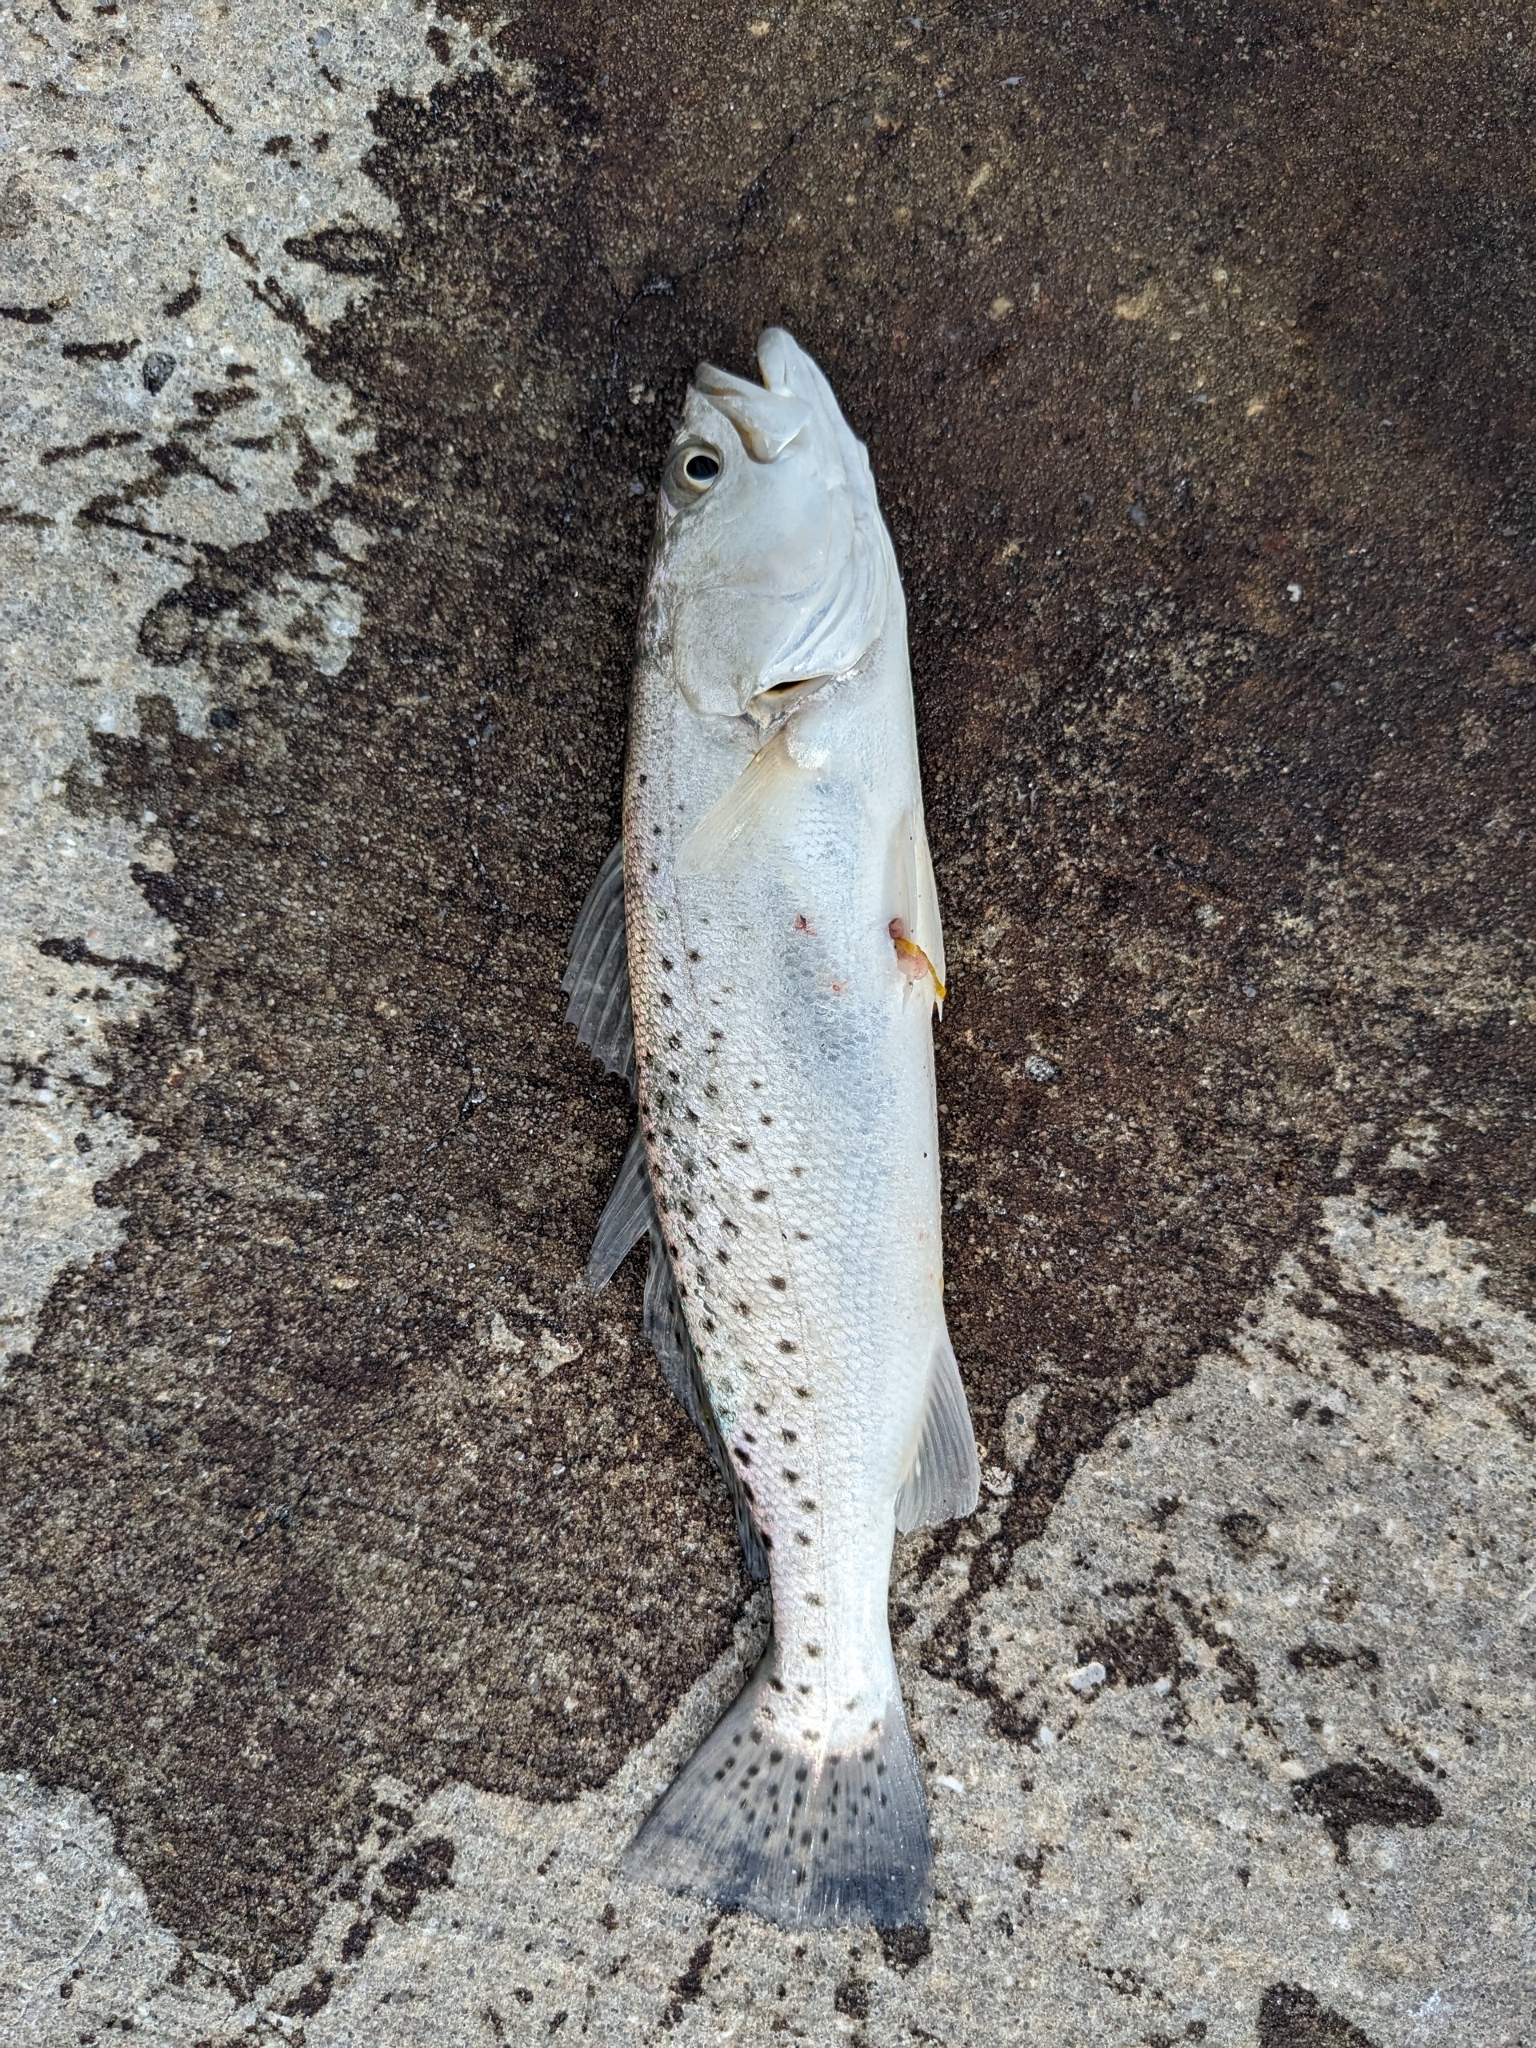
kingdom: Animalia
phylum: Chordata
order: Perciformes
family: Sciaenidae
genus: Cynoscion
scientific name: Cynoscion nebulosus
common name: Spotted seatrout
